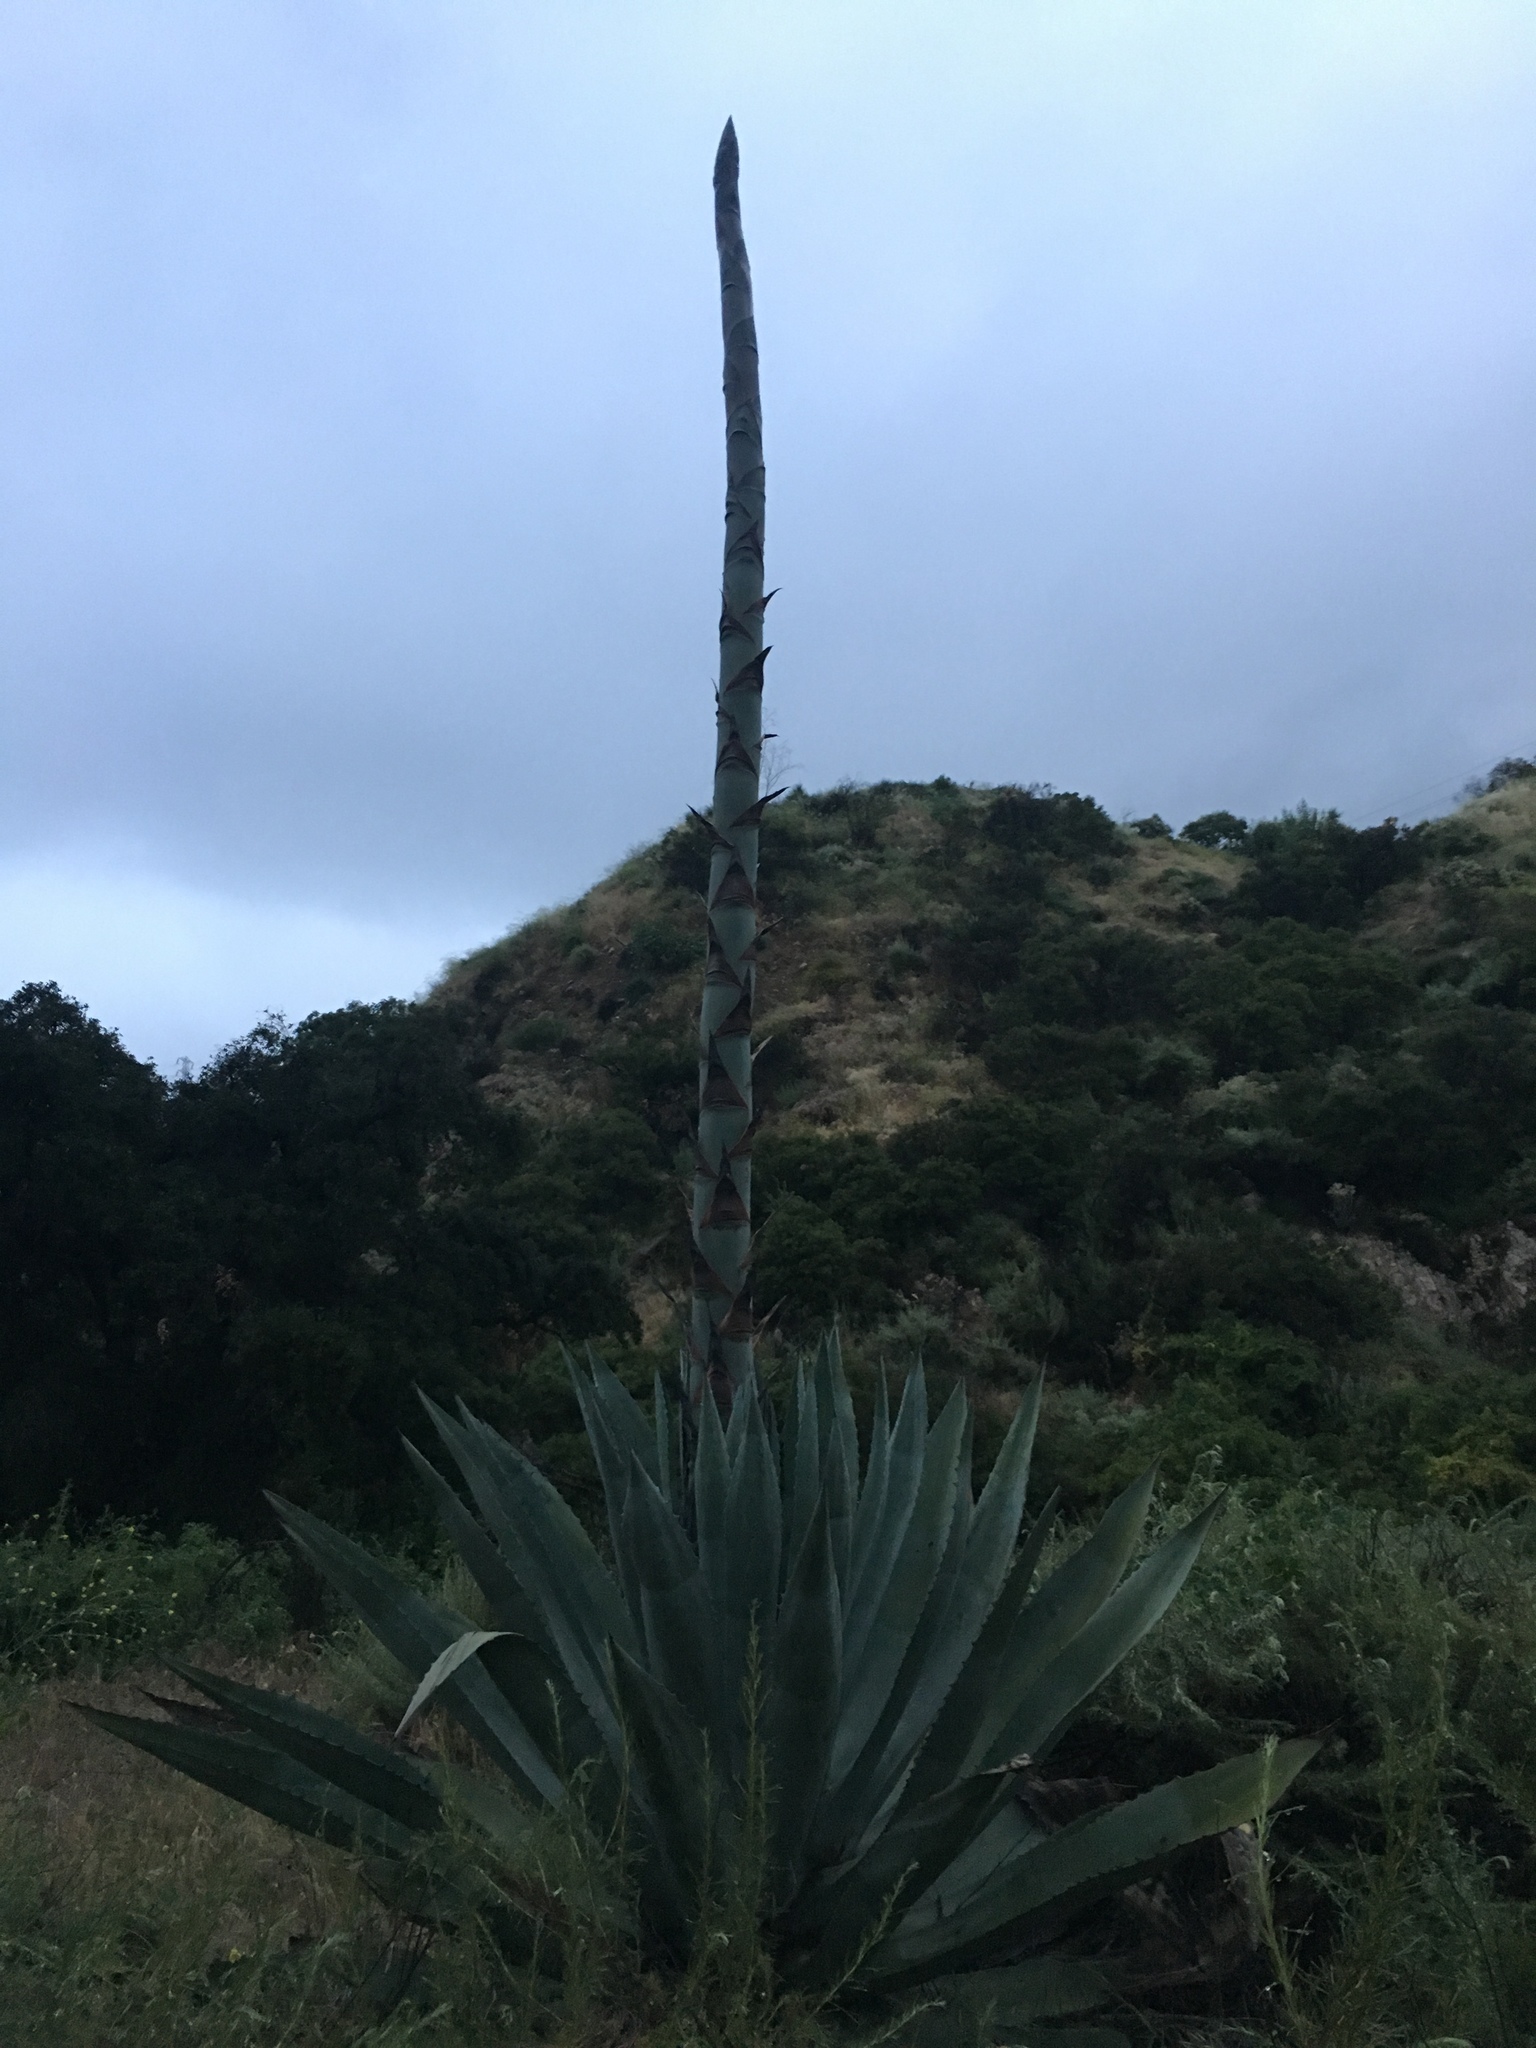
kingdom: Plantae
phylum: Tracheophyta
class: Liliopsida
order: Asparagales
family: Asparagaceae
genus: Agave
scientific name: Agave americana
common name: Centuryplant
